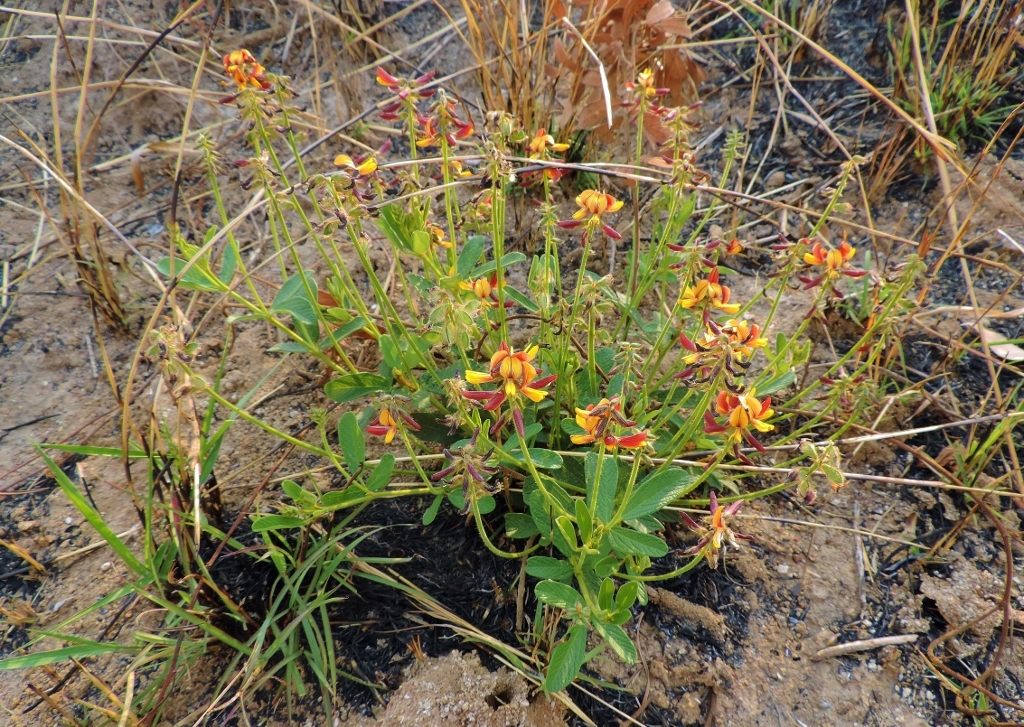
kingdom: Plantae
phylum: Tracheophyta
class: Magnoliopsida
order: Fabales
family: Fabaceae
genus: Eriosema
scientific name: Eriosema pauciflorum
